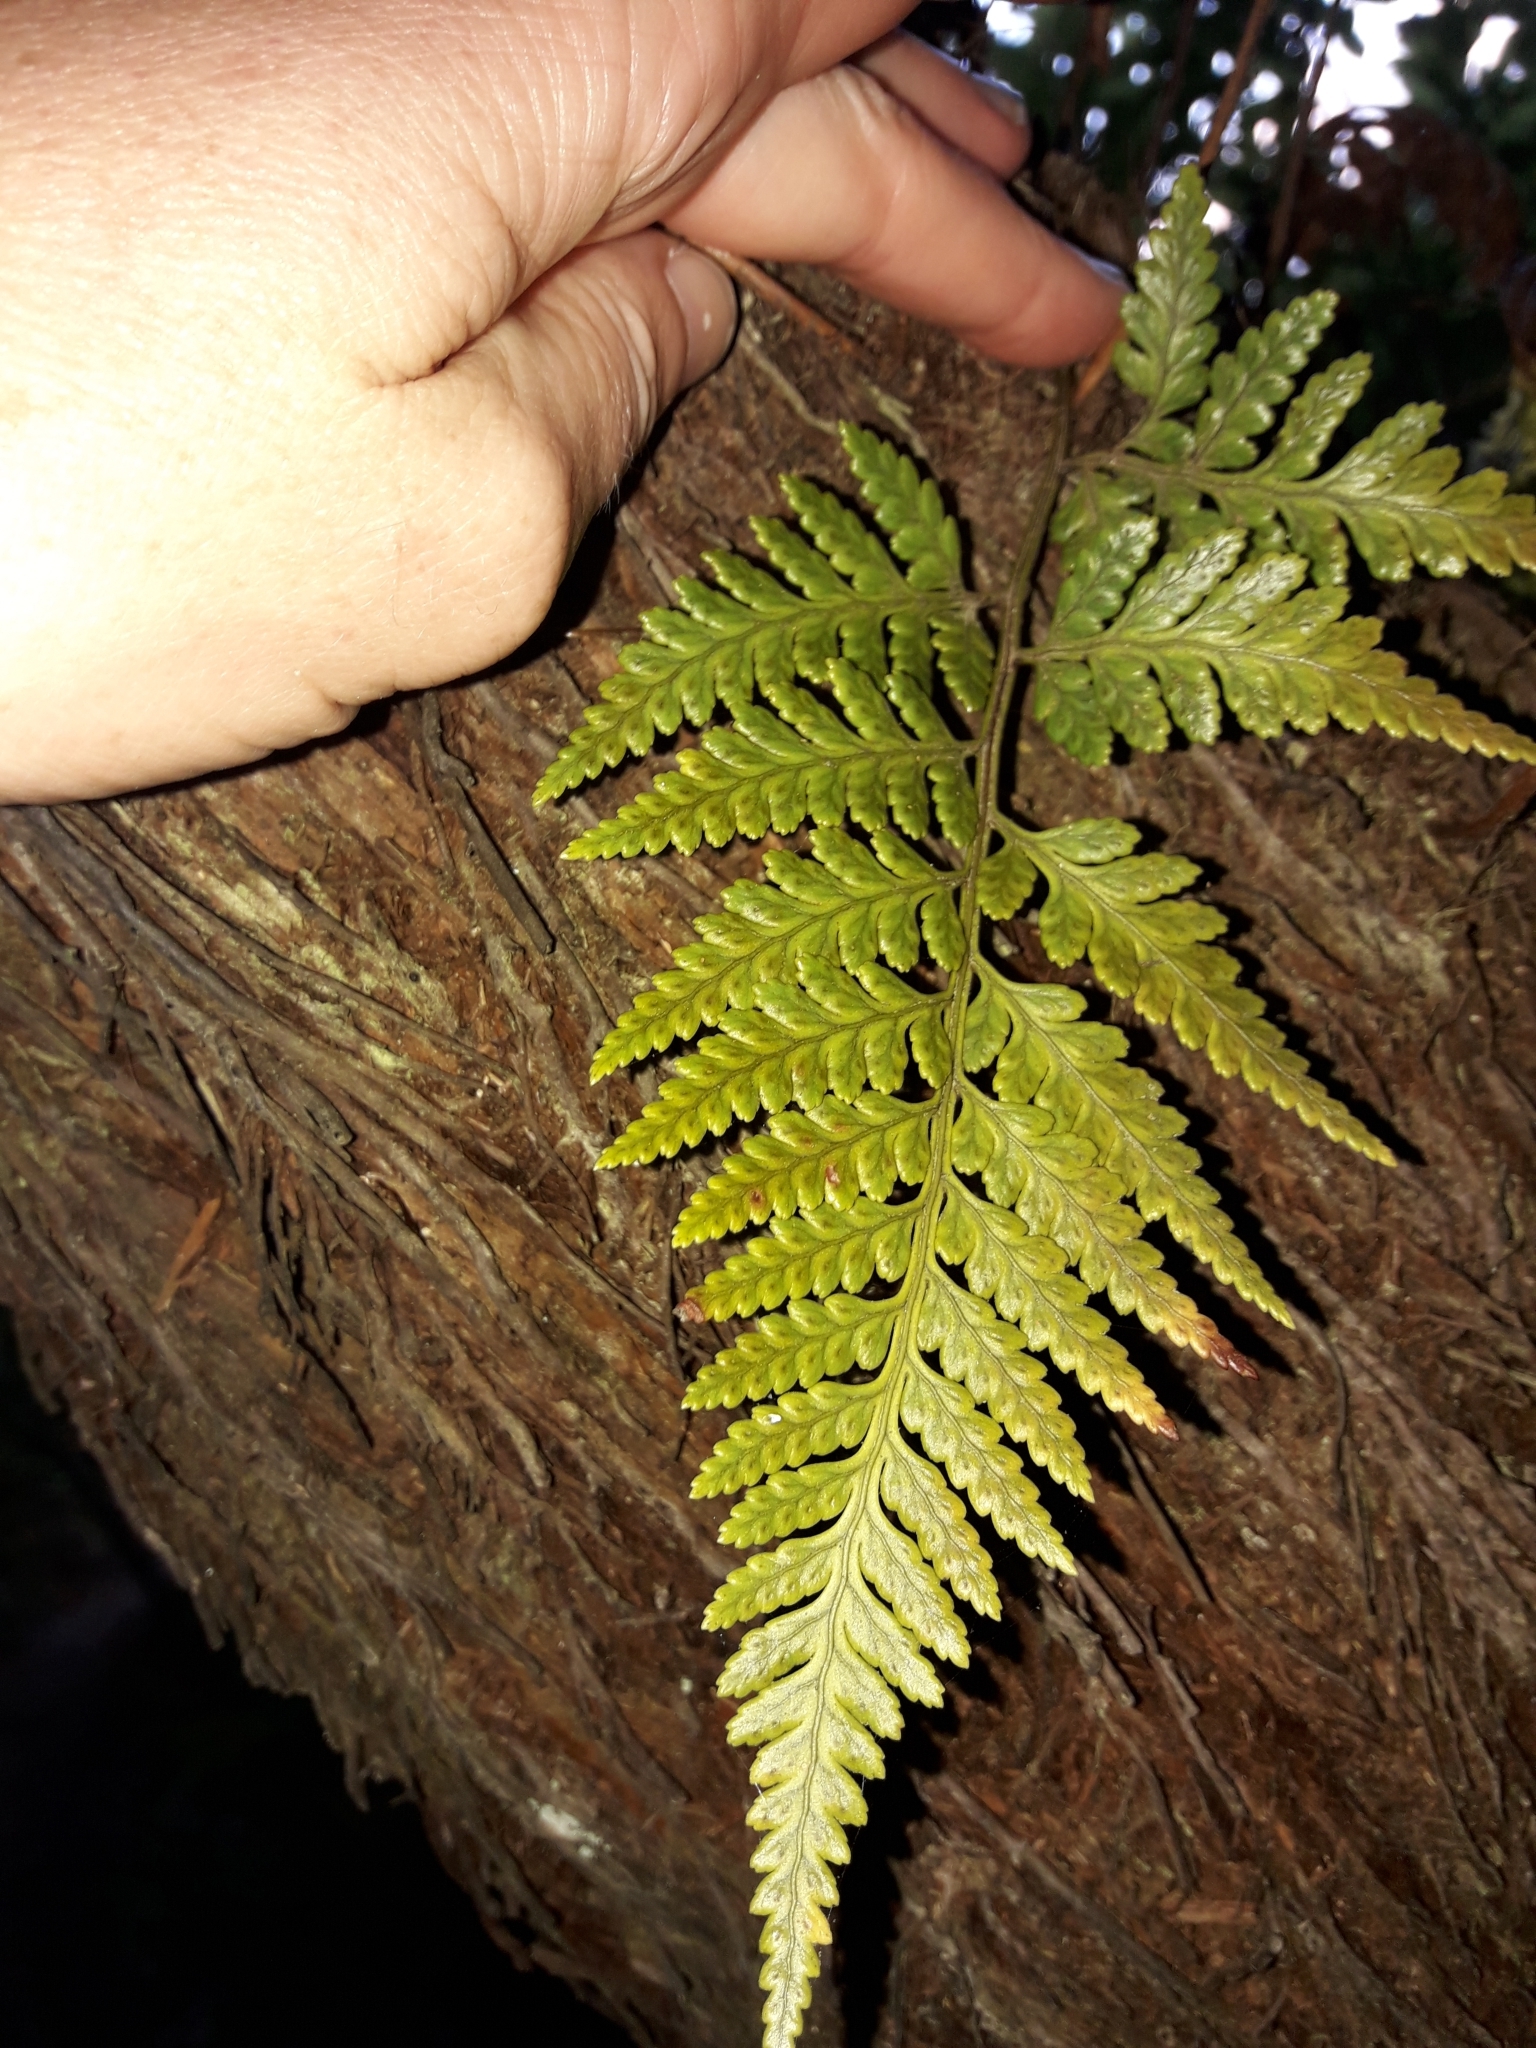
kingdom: Plantae
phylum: Tracheophyta
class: Polypodiopsida
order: Polypodiales
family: Dryopteridaceae
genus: Rumohra
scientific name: Rumohra adiantiformis
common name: Leather fern
